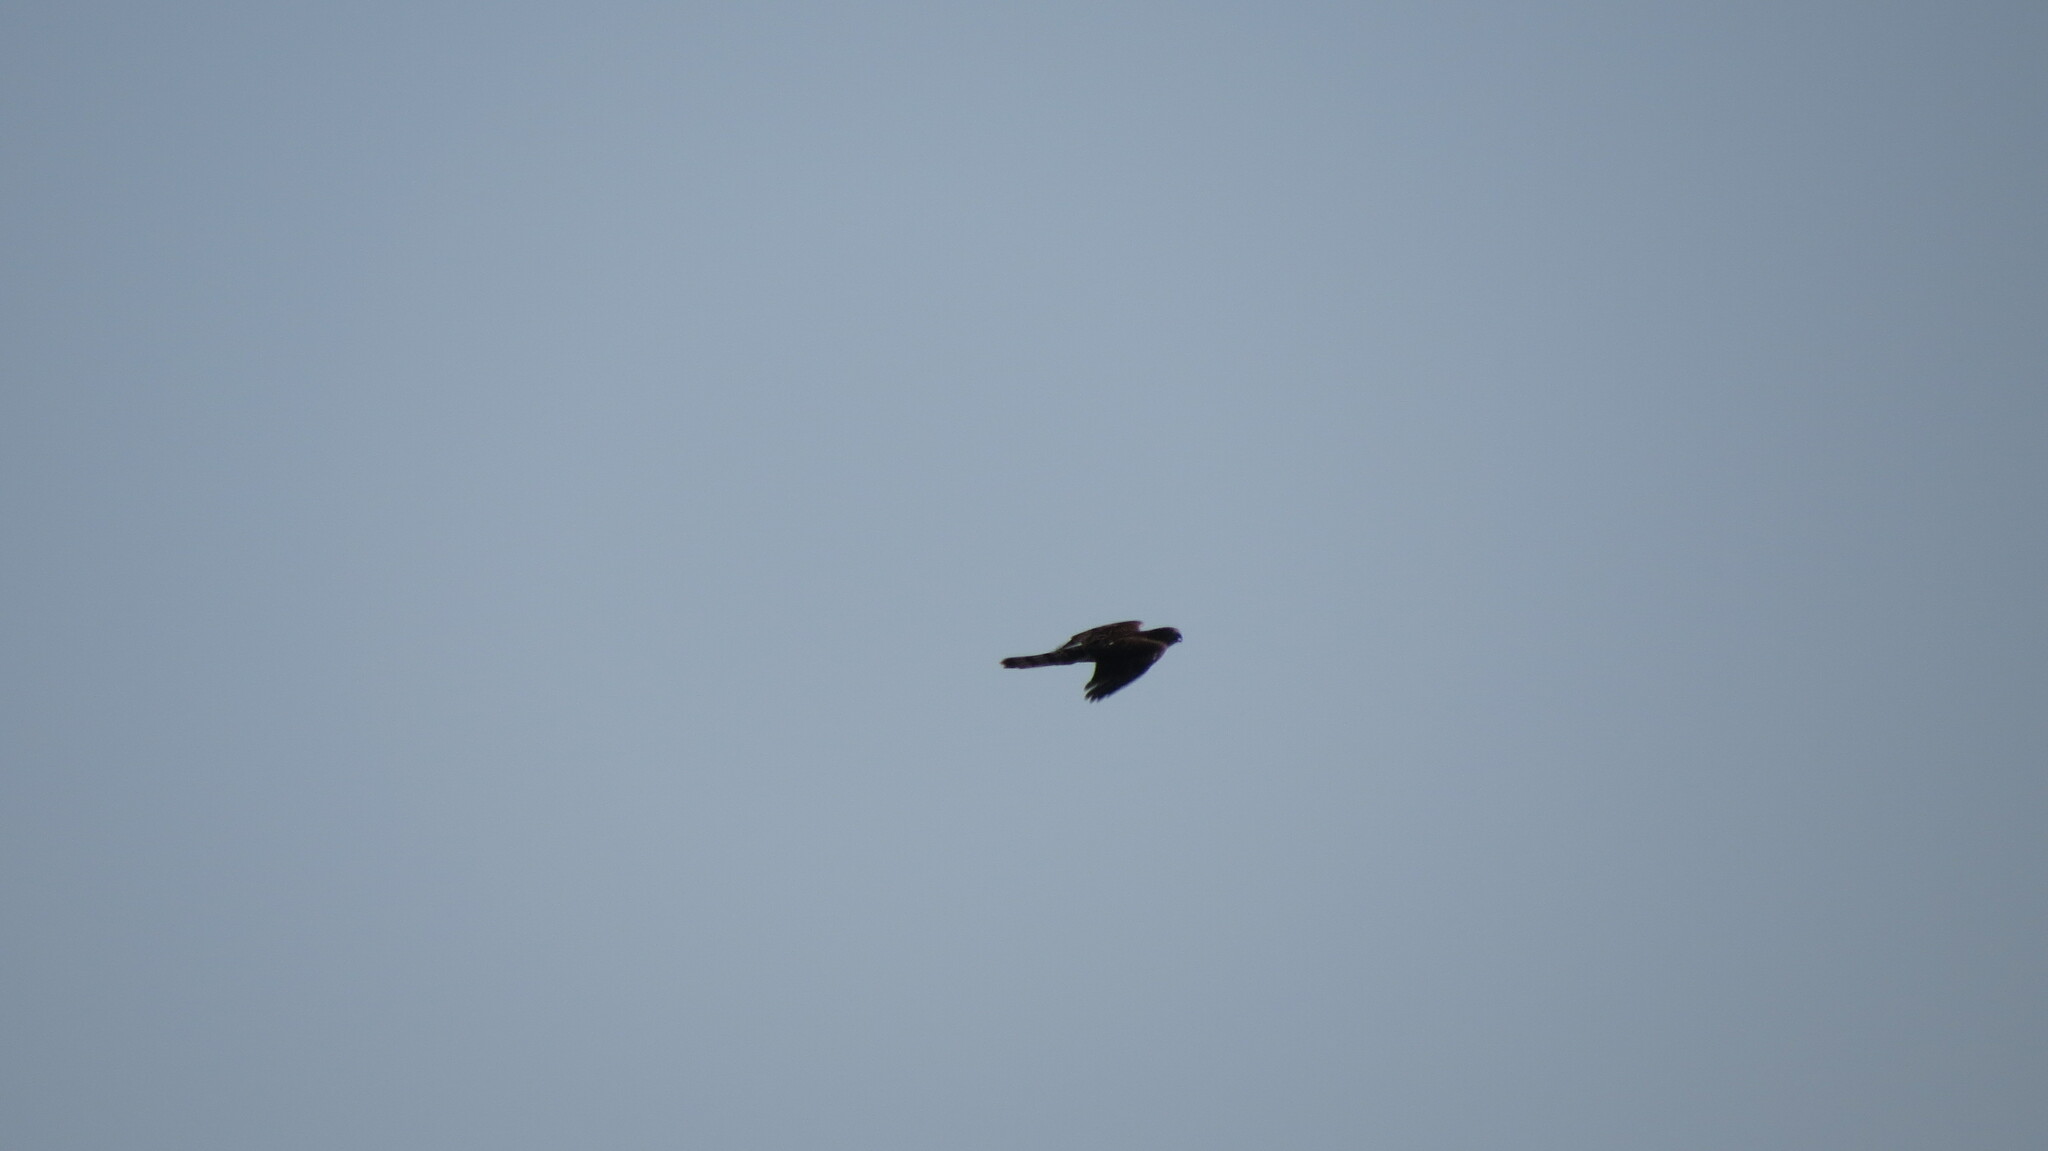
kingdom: Animalia
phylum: Chordata
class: Aves
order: Accipitriformes
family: Accipitridae
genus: Accipiter
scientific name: Accipiter cooperii
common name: Cooper's hawk
